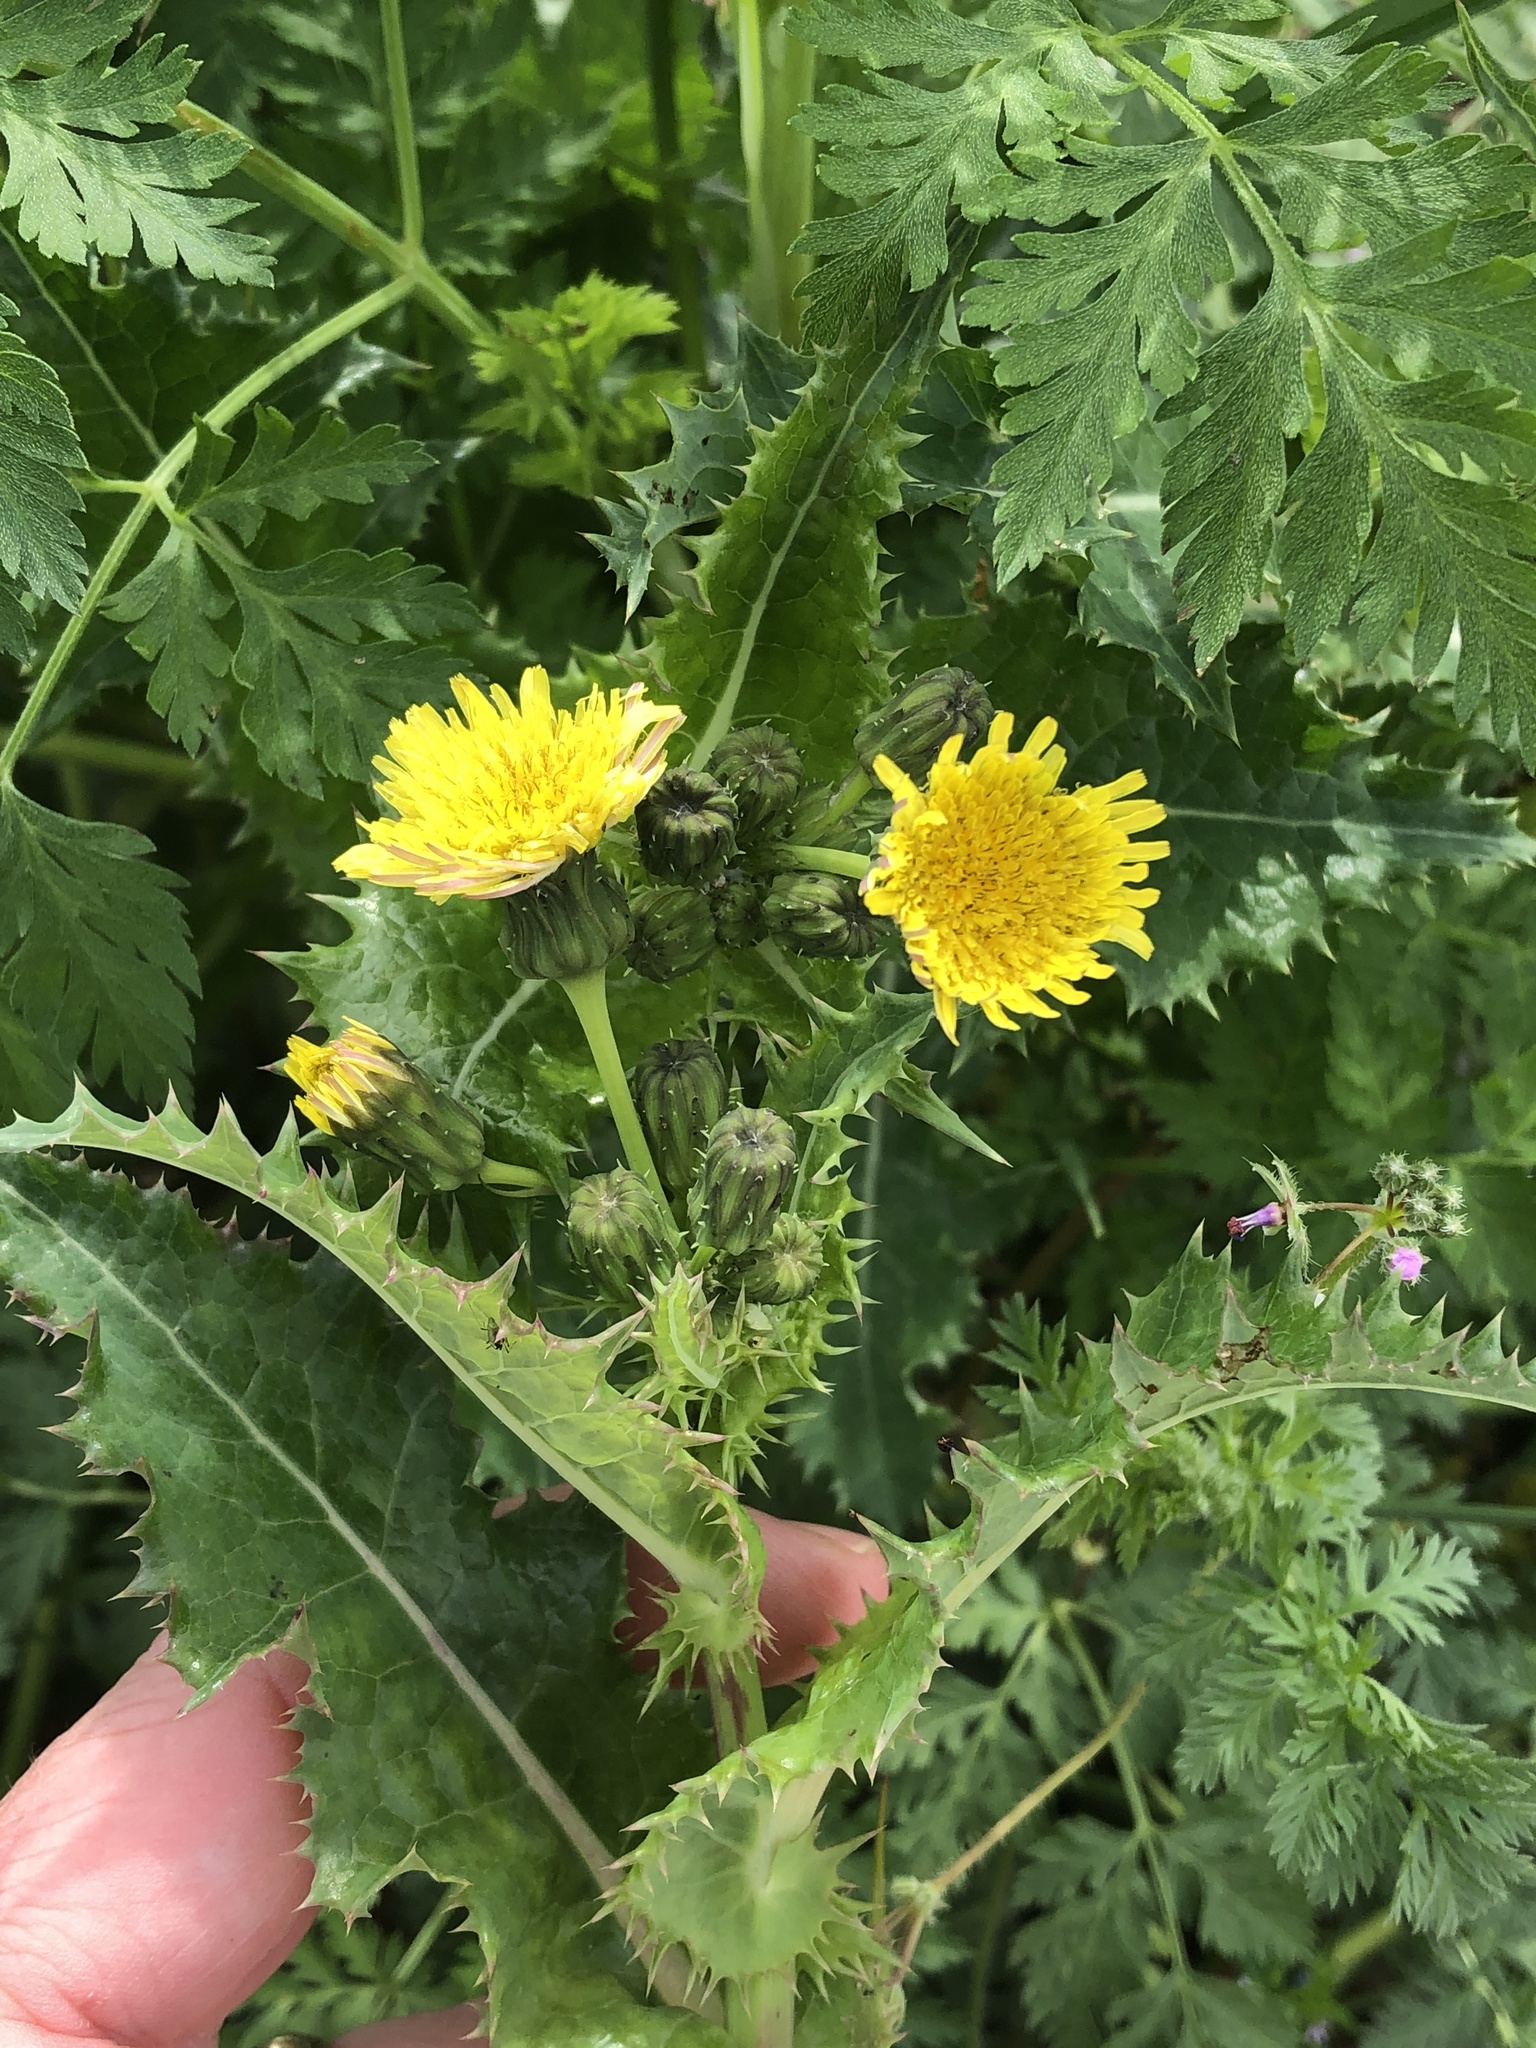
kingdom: Plantae
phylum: Tracheophyta
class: Magnoliopsida
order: Asterales
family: Asteraceae
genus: Sonchus
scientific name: Sonchus asper
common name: Prickly sow-thistle
